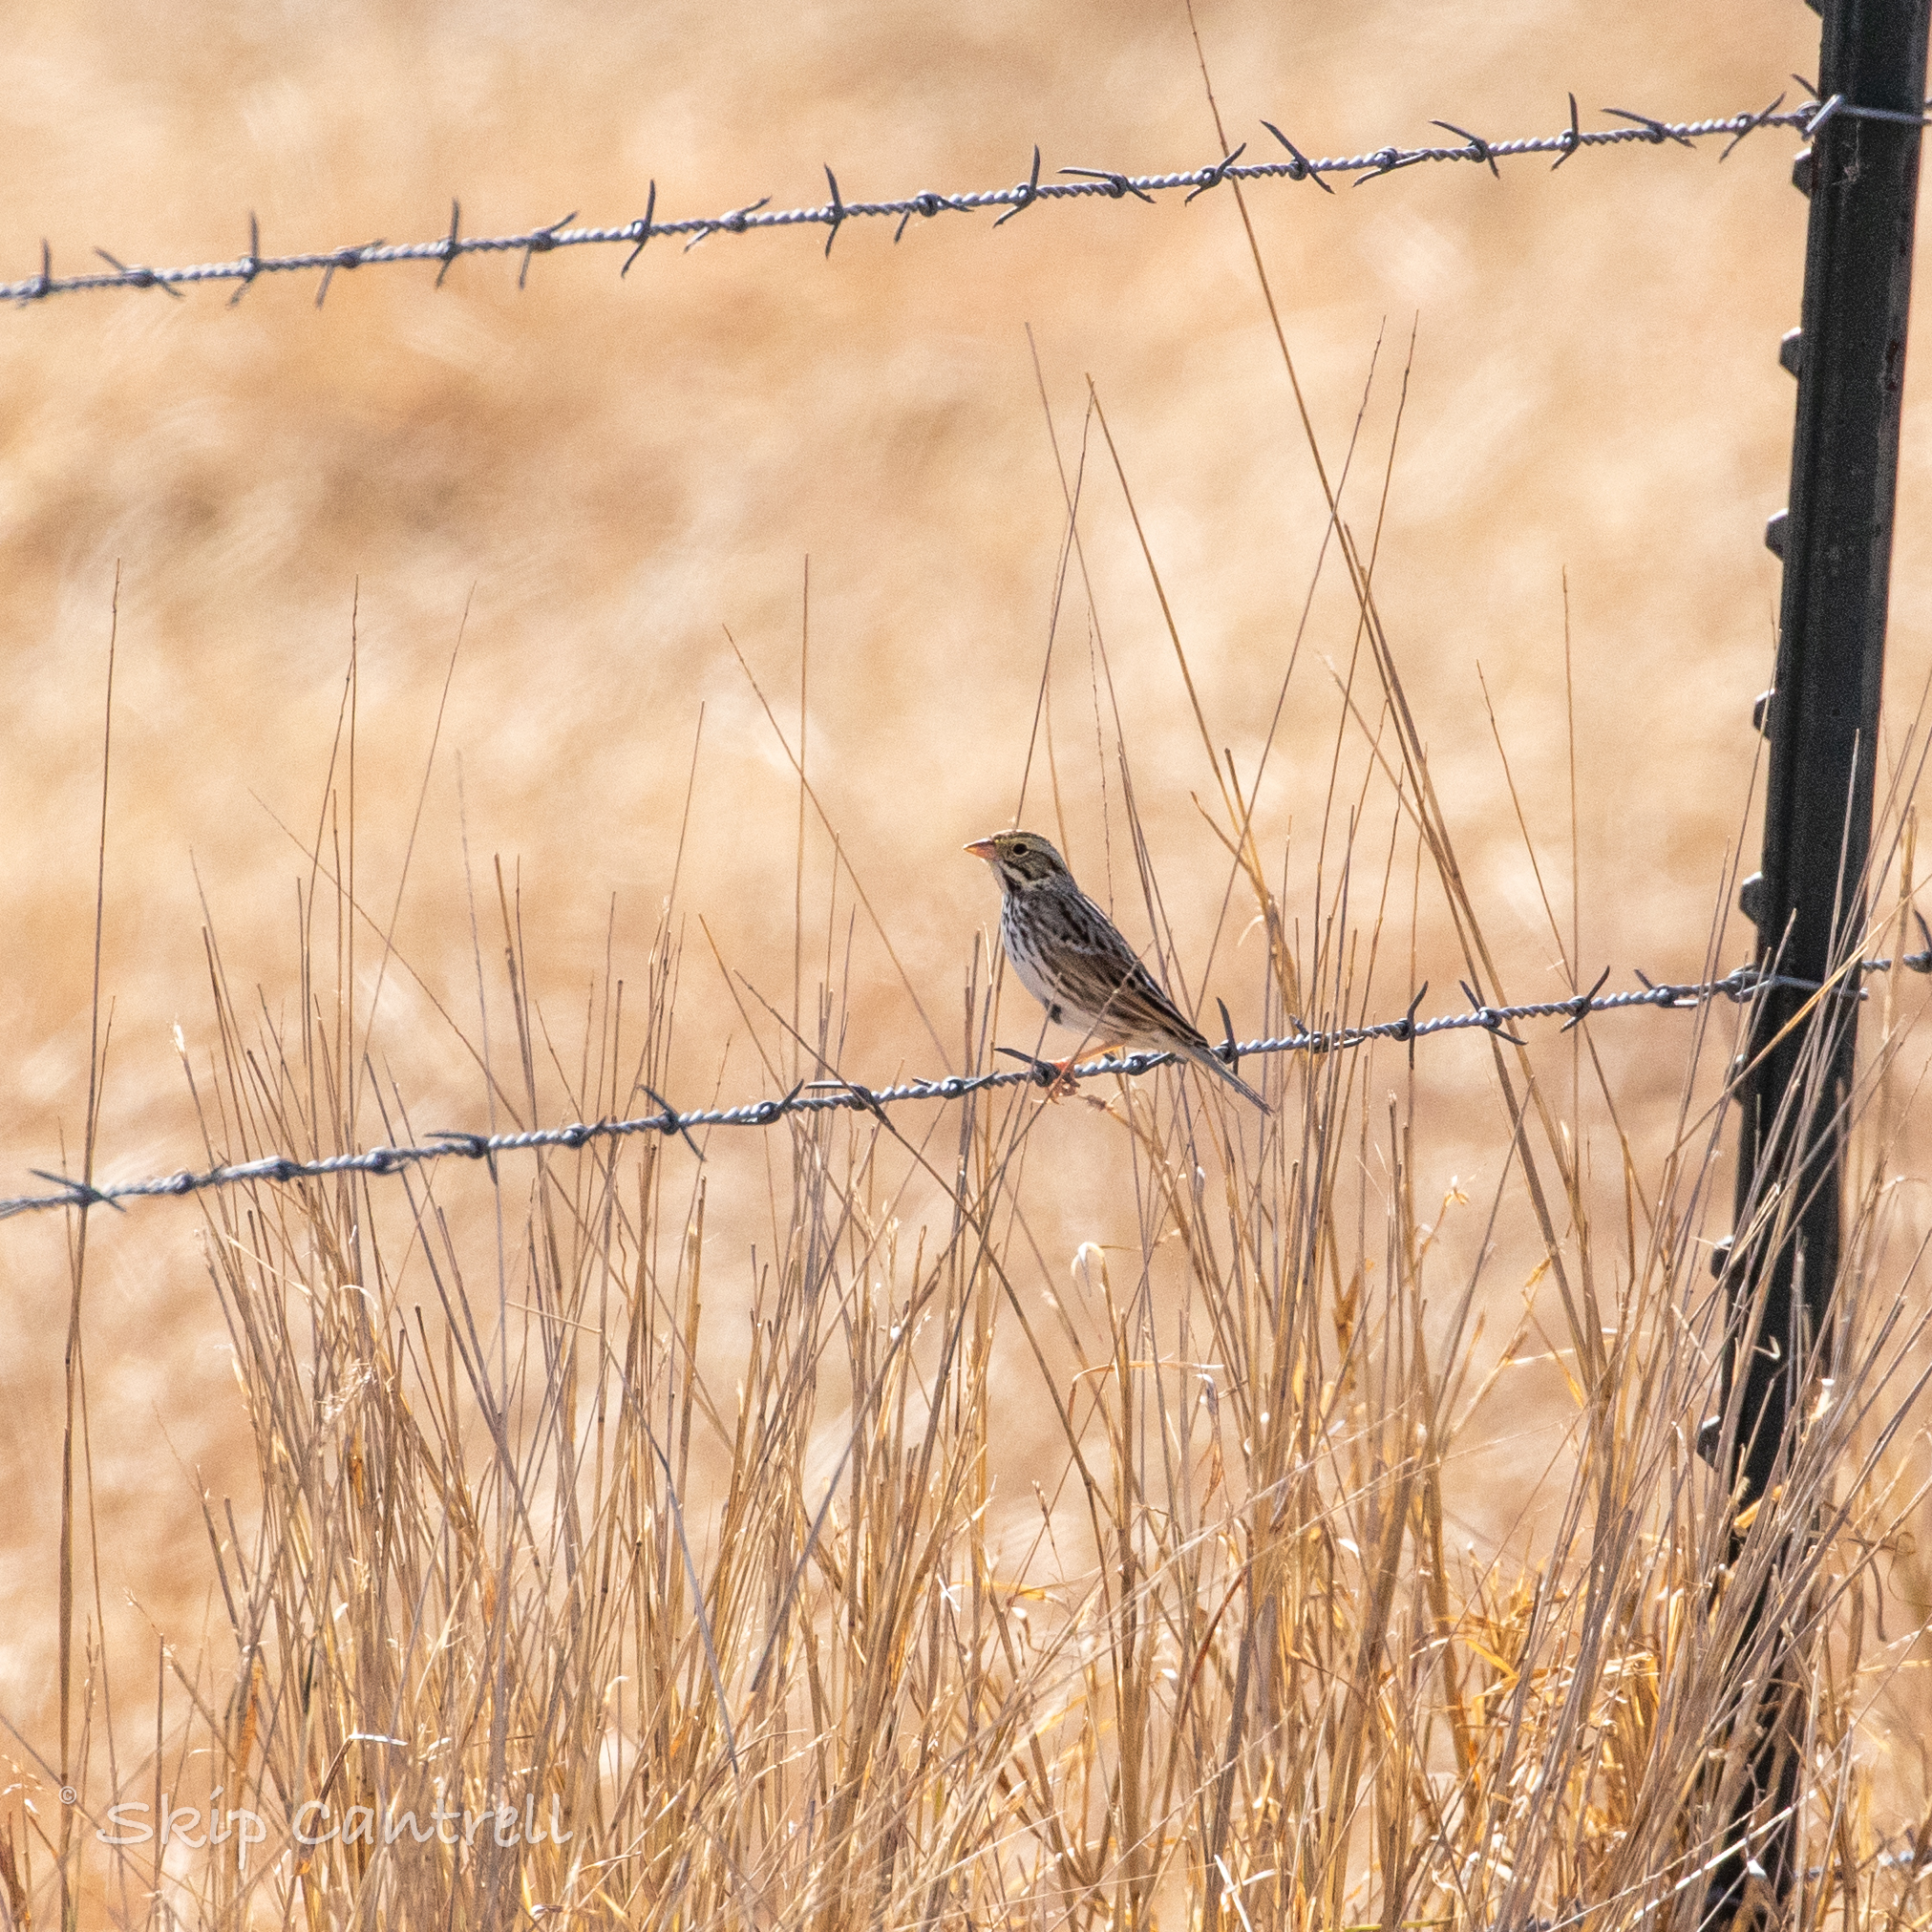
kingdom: Animalia
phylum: Chordata
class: Aves
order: Passeriformes
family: Passerellidae
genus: Passerculus
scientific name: Passerculus sandwichensis
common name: Savannah sparrow
